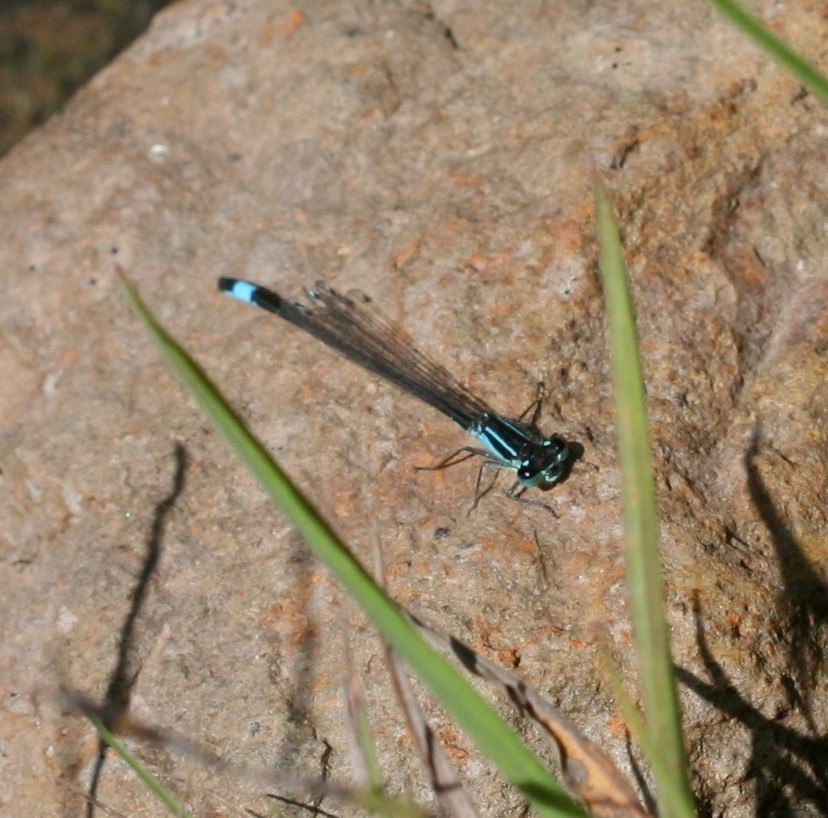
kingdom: Animalia
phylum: Arthropoda
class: Insecta
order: Odonata
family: Coenagrionidae
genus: Ischnura
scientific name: Ischnura elegans
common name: Blue-tailed damselfly
